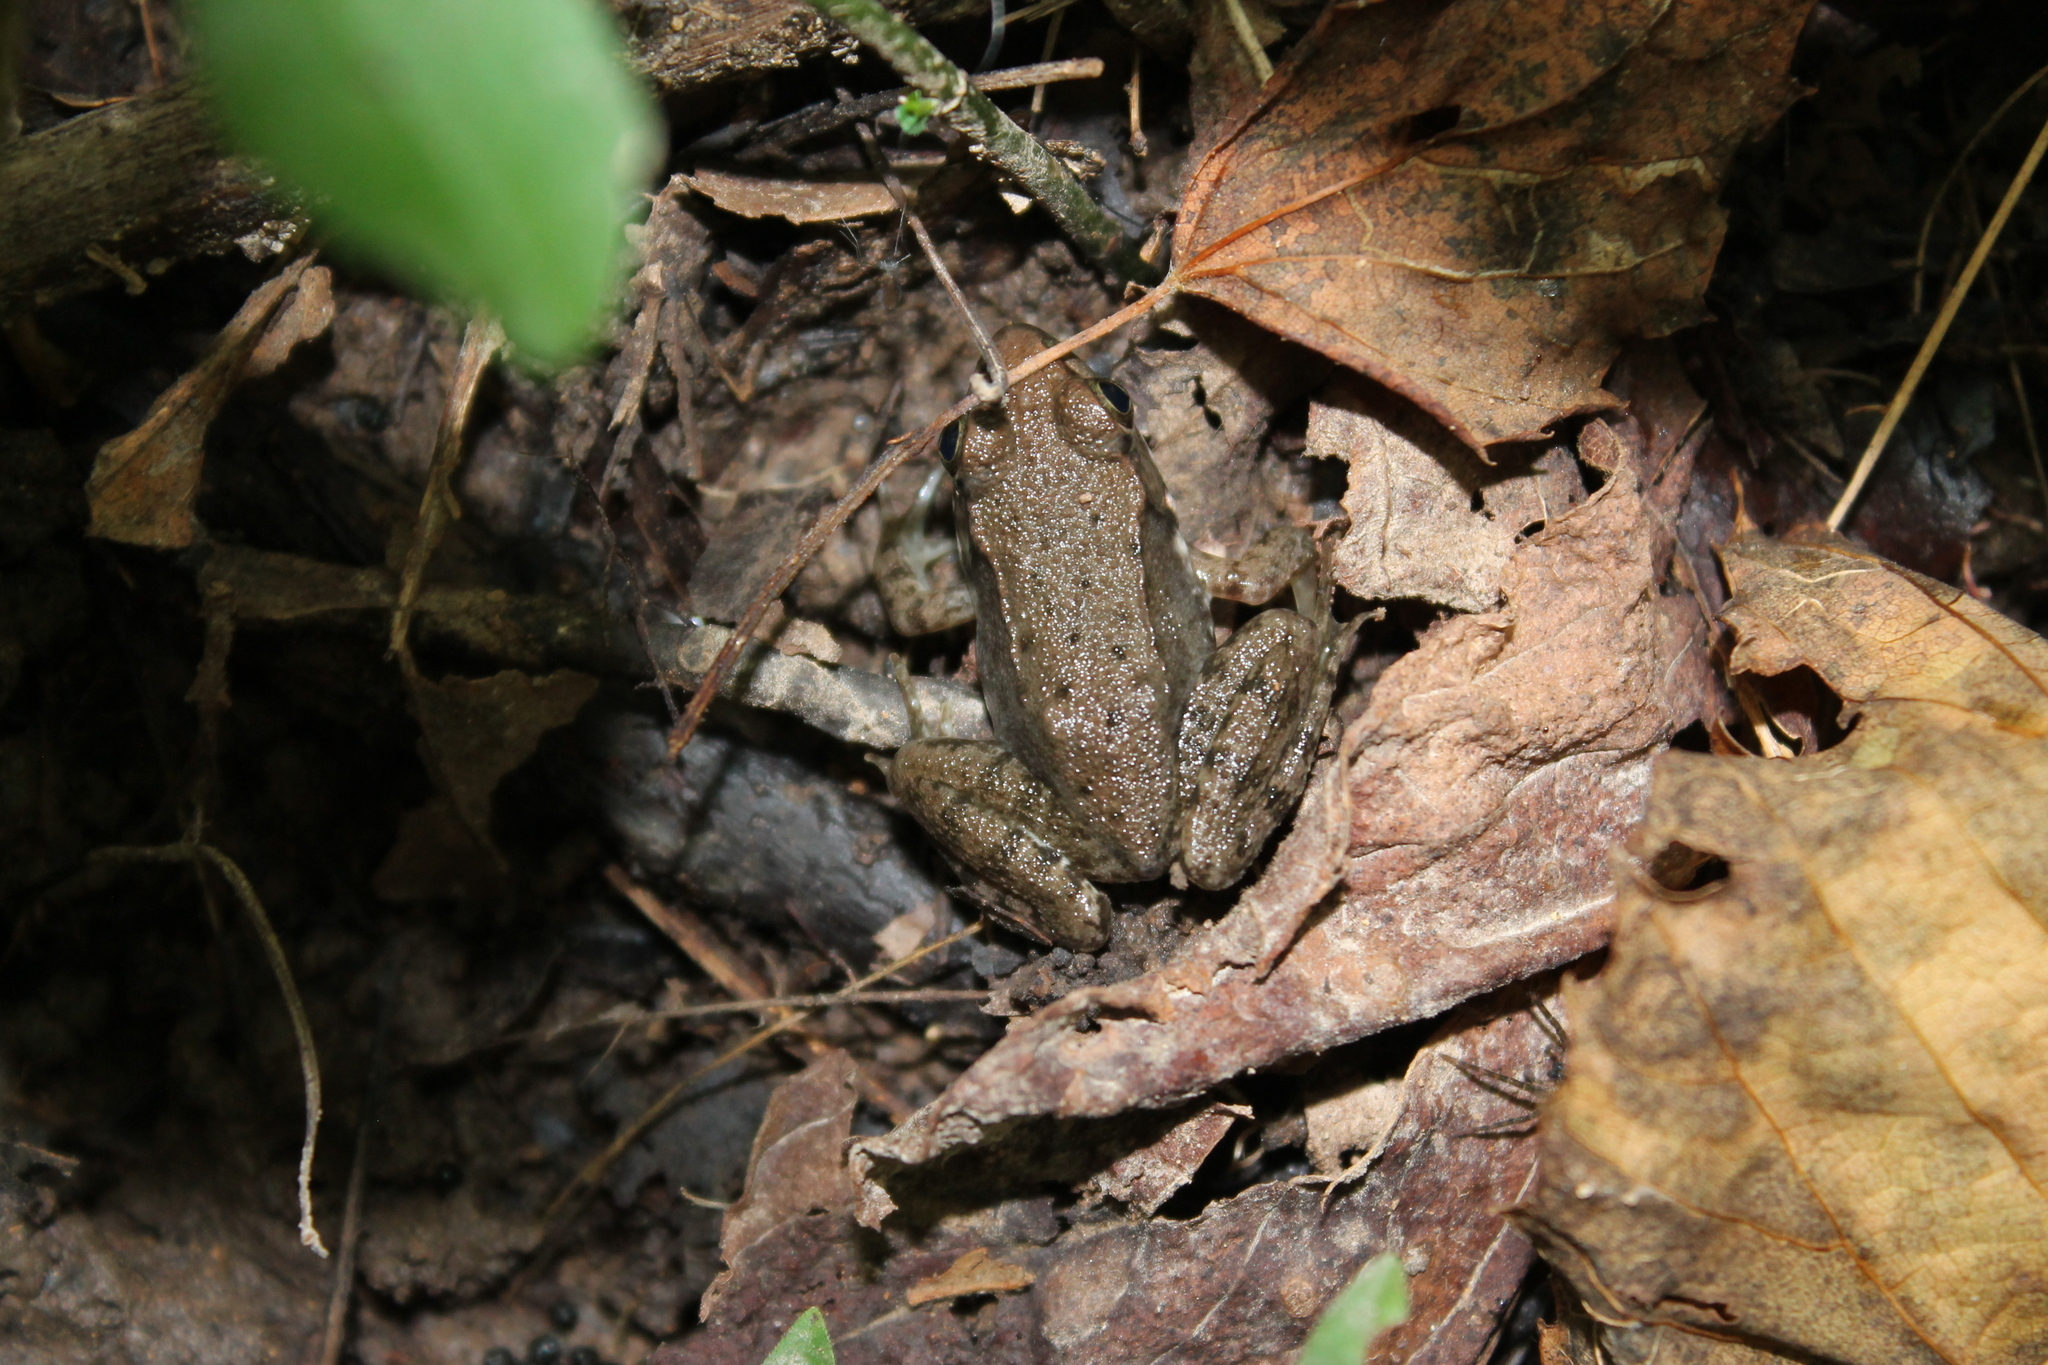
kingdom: Animalia
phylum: Chordata
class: Amphibia
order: Anura
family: Ranidae
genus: Lithobates
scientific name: Lithobates clamitans
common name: Green frog
